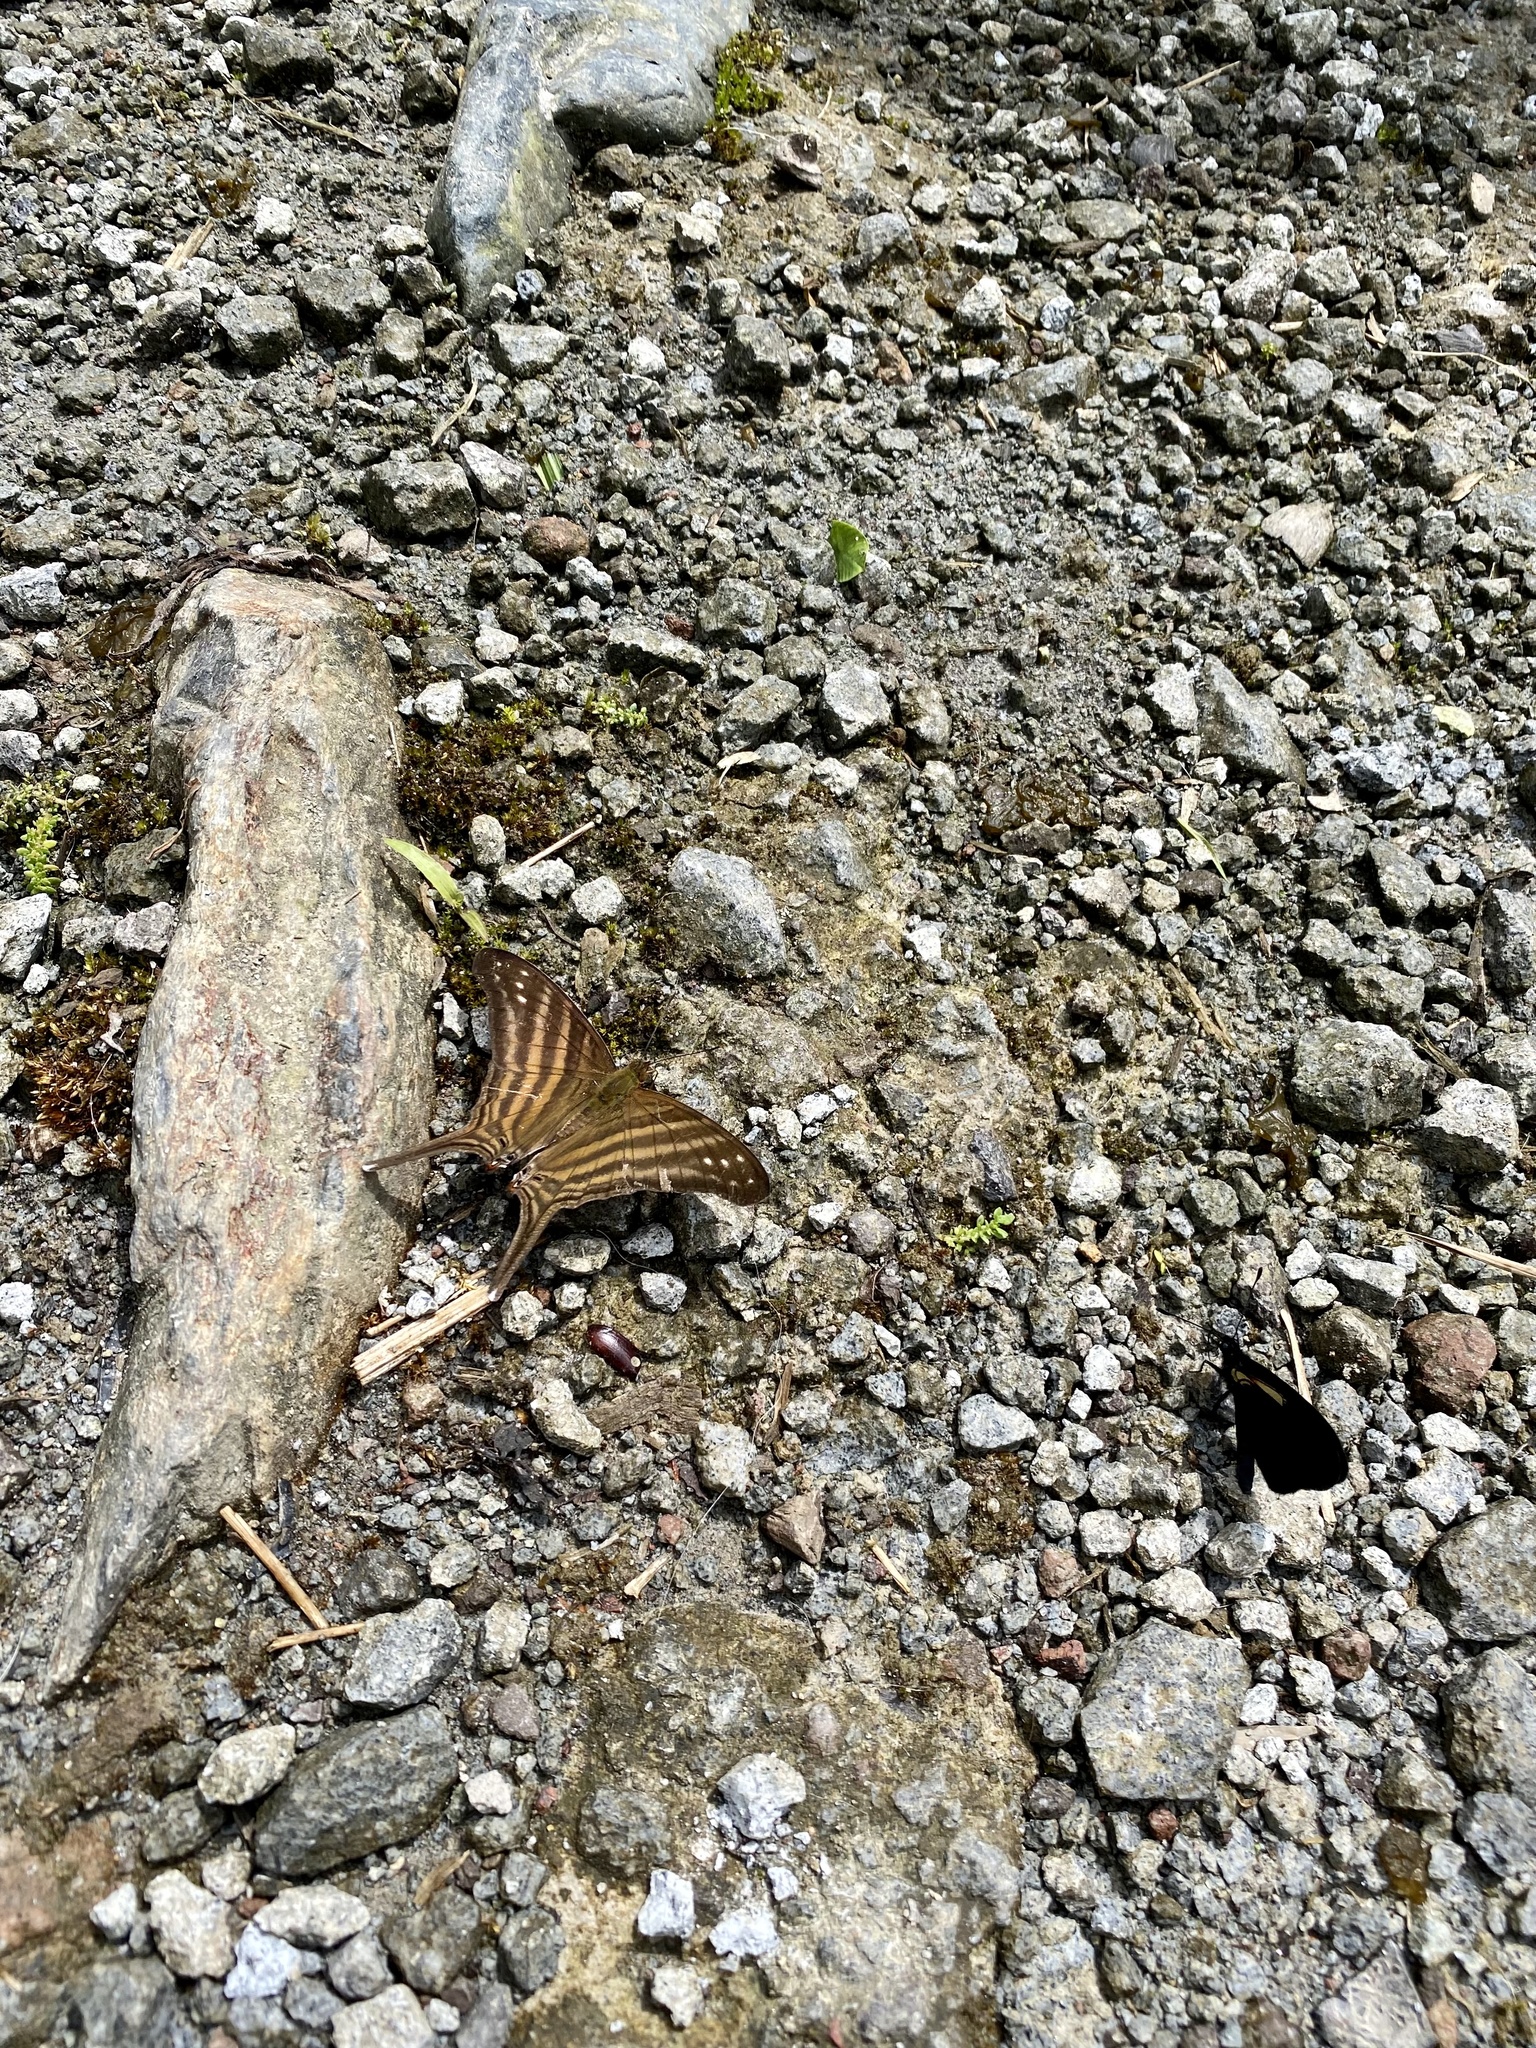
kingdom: Animalia
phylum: Arthropoda
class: Insecta
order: Lepidoptera
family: Nymphalidae
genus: Marpesia
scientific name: Marpesia chiron
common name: Many-banded daggerwing
